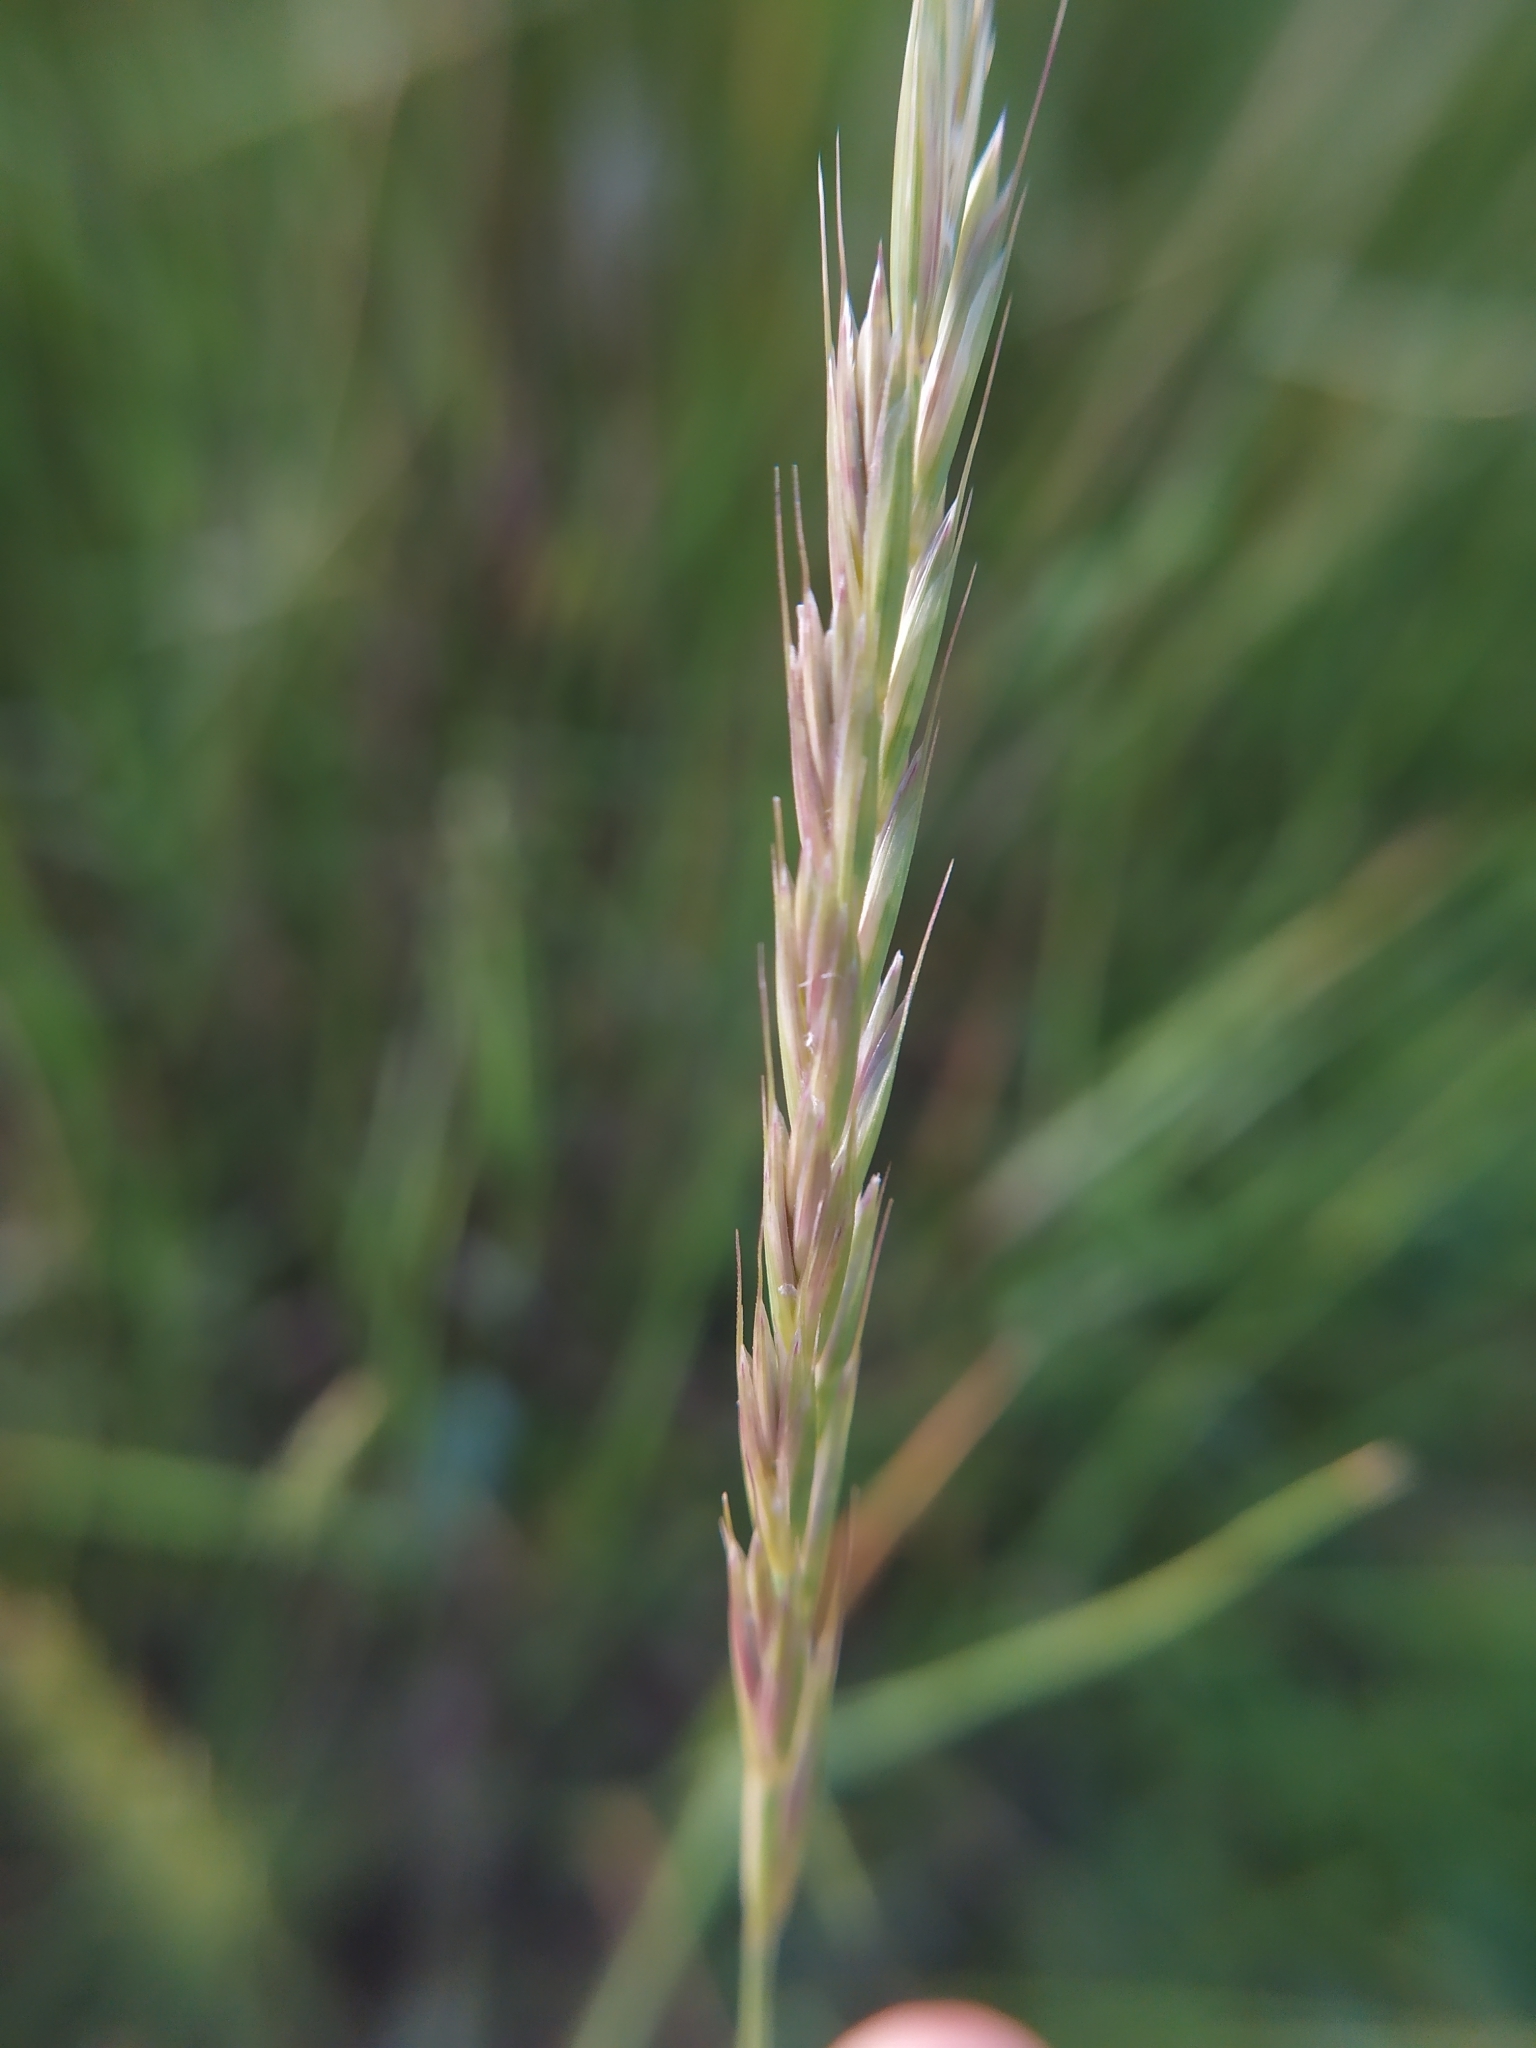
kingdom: Plantae
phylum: Tracheophyta
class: Liliopsida
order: Poales
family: Poaceae
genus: Elymus
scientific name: Elymus repens
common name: Quackgrass
